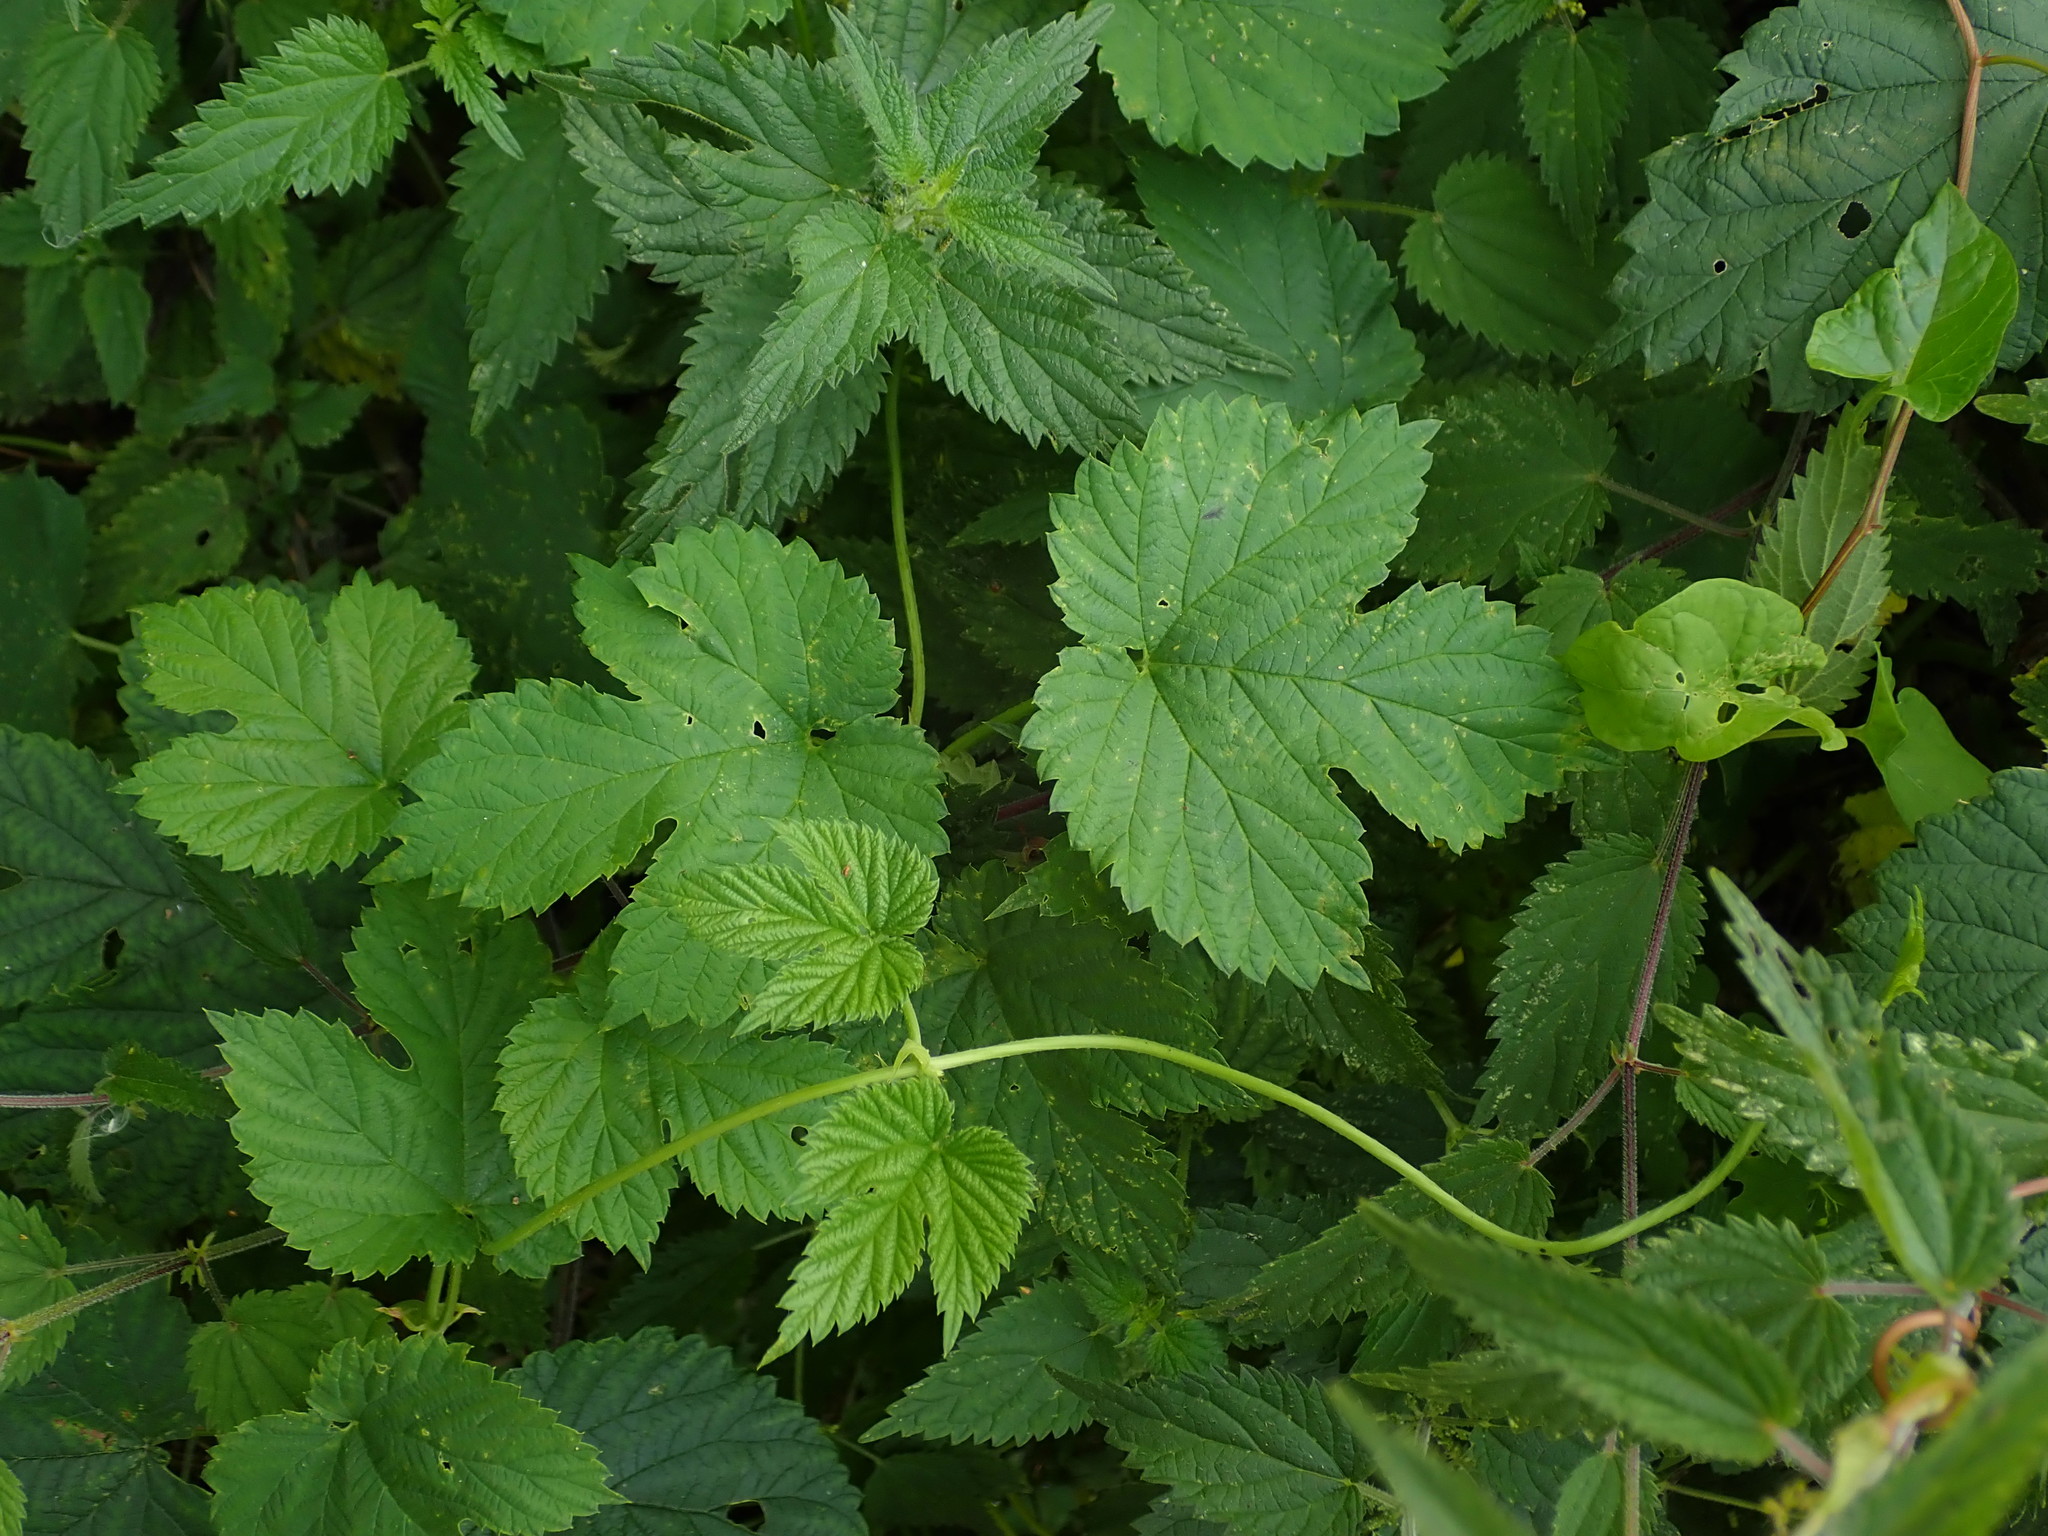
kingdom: Plantae
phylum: Tracheophyta
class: Magnoliopsida
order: Rosales
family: Cannabaceae
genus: Humulus
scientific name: Humulus lupulus
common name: Hop
